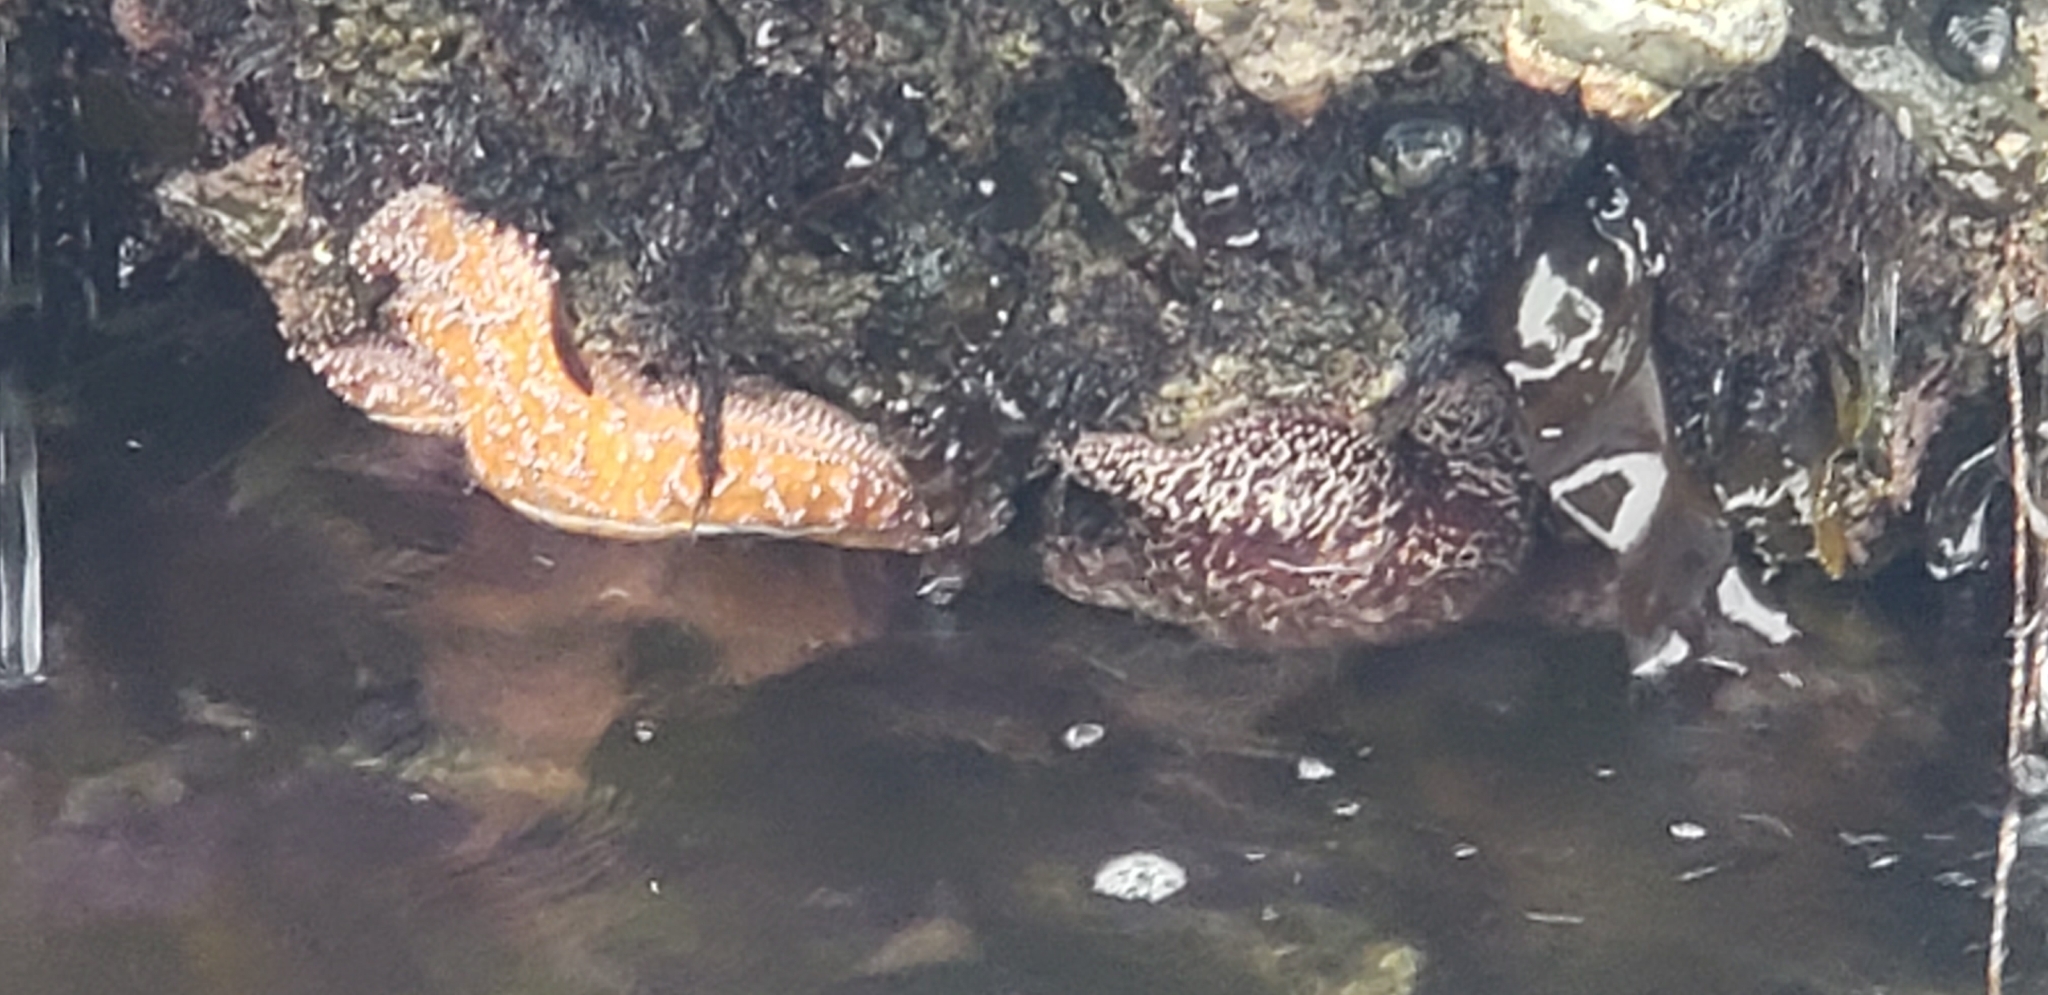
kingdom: Animalia
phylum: Echinodermata
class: Asteroidea
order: Forcipulatida
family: Asteriidae
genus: Pisaster
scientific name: Pisaster ochraceus
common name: Ochre stars
